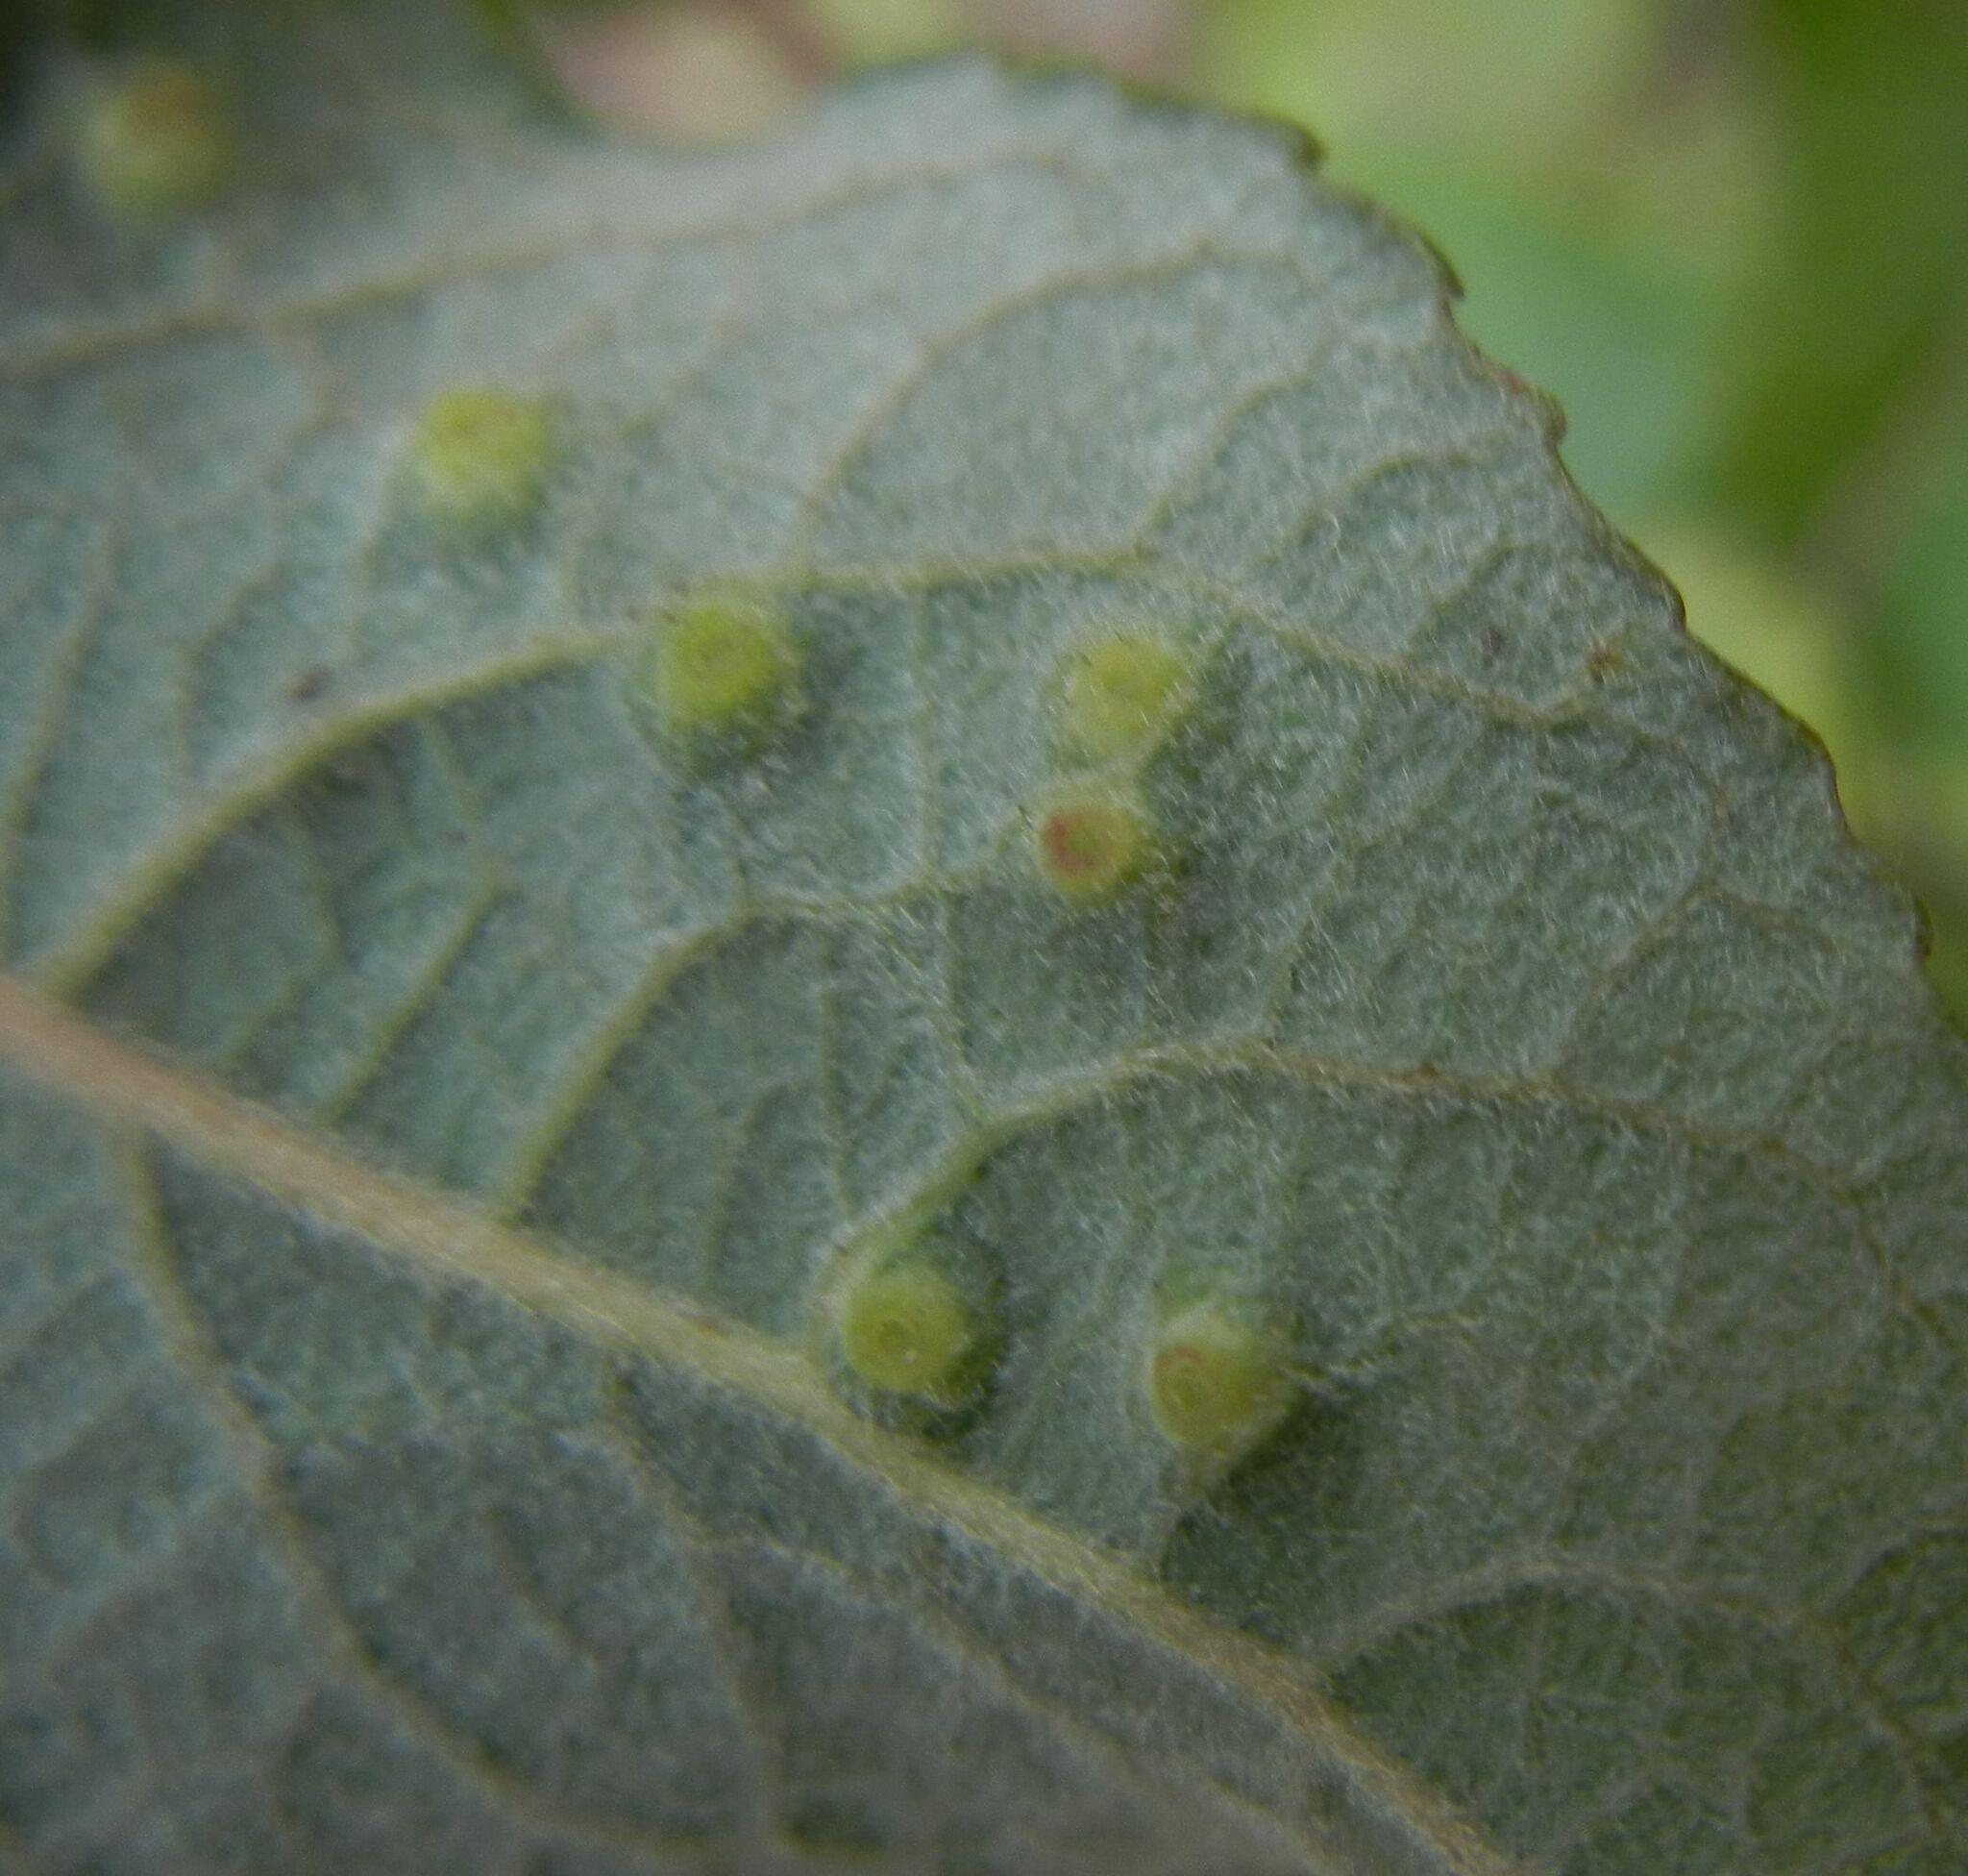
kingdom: Animalia
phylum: Arthropoda
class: Insecta
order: Diptera
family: Cecidomyiidae
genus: Iteomyia
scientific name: Iteomyia capreae
